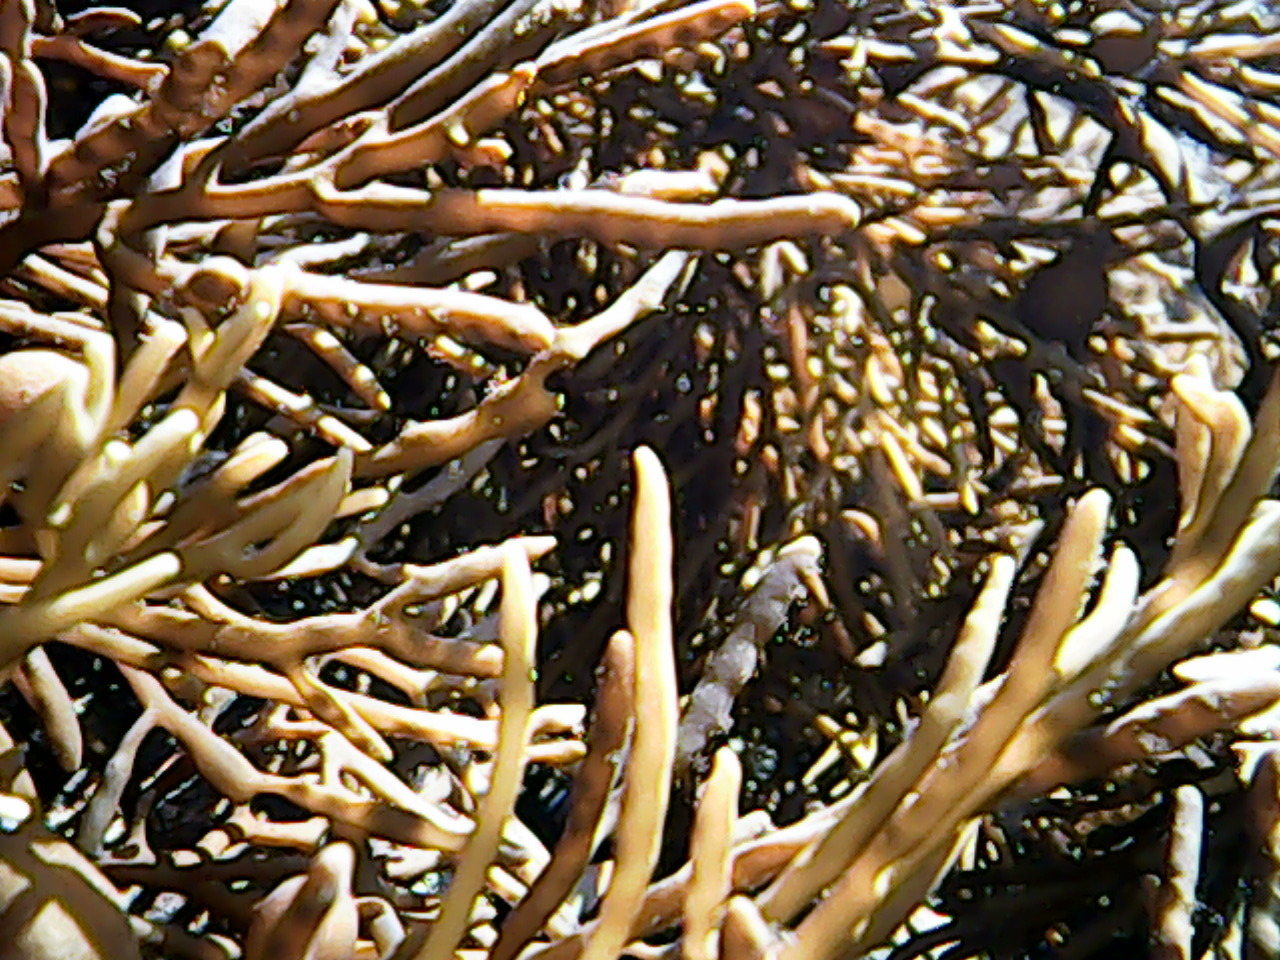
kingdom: Chromista
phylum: Ochrophyta
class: Phaeophyceae
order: Fucales
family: Sargassaceae
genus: Cystophora
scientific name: Cystophora retroflexa
